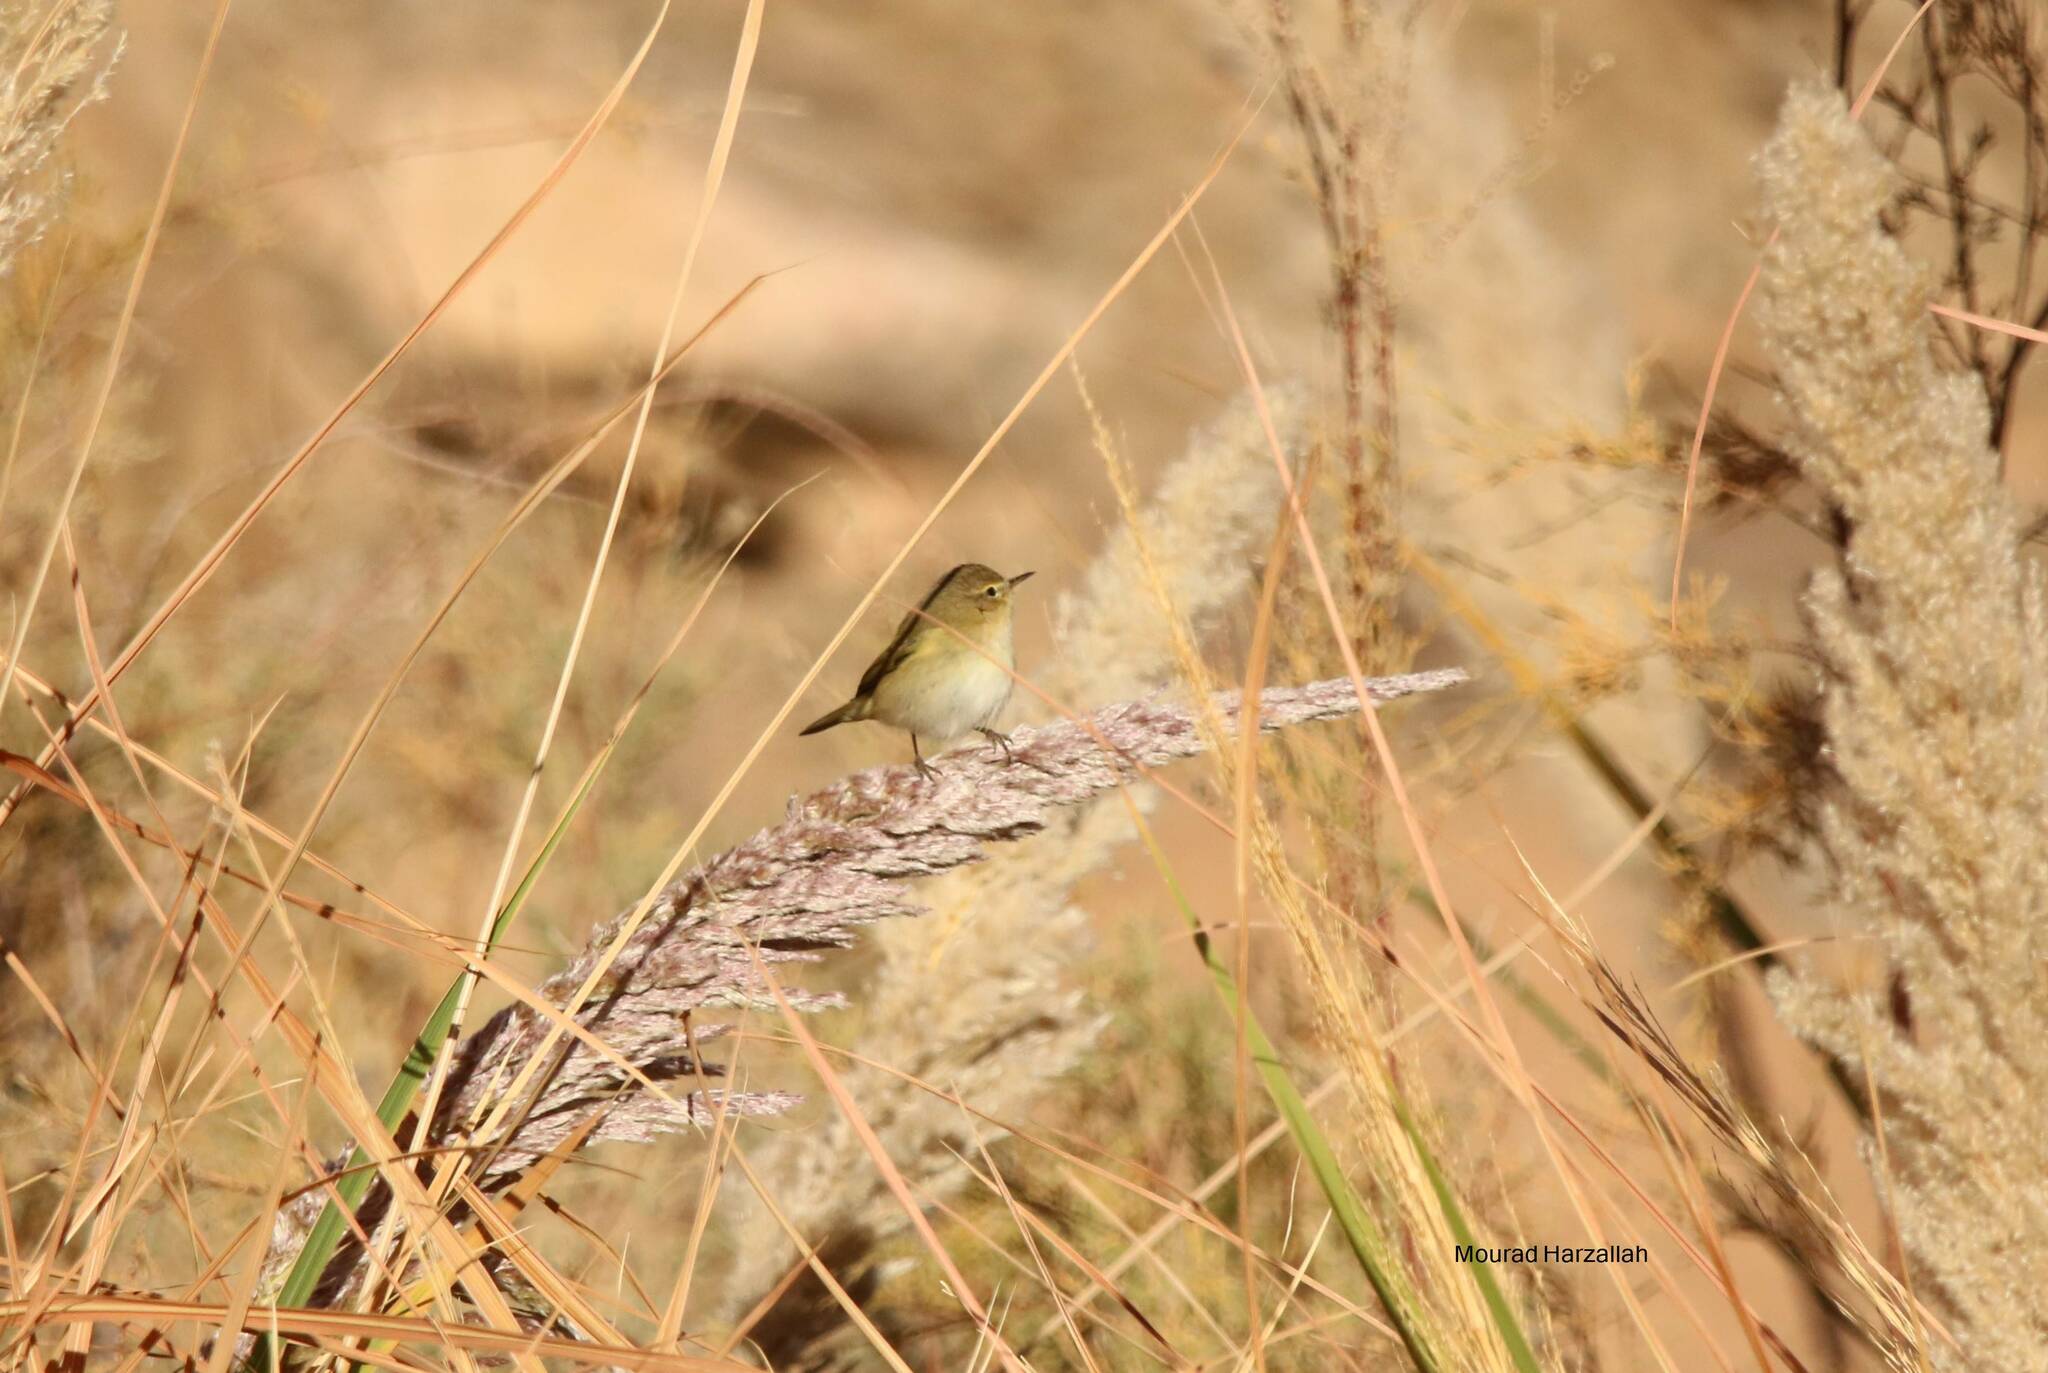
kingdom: Animalia
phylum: Chordata
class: Aves
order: Passeriformes
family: Phylloscopidae
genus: Phylloscopus
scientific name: Phylloscopus collybita
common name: Common chiffchaff
